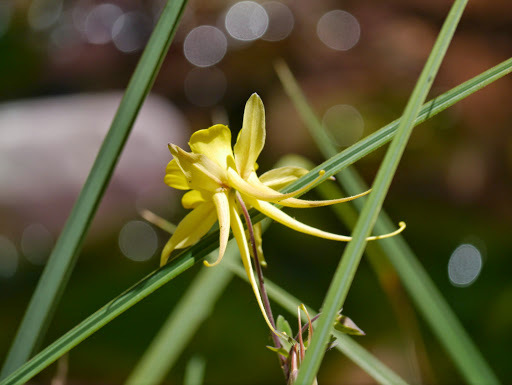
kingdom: Plantae
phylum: Tracheophyta
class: Magnoliopsida
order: Ranunculales
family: Ranunculaceae
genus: Aquilegia
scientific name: Aquilegia chrysantha
